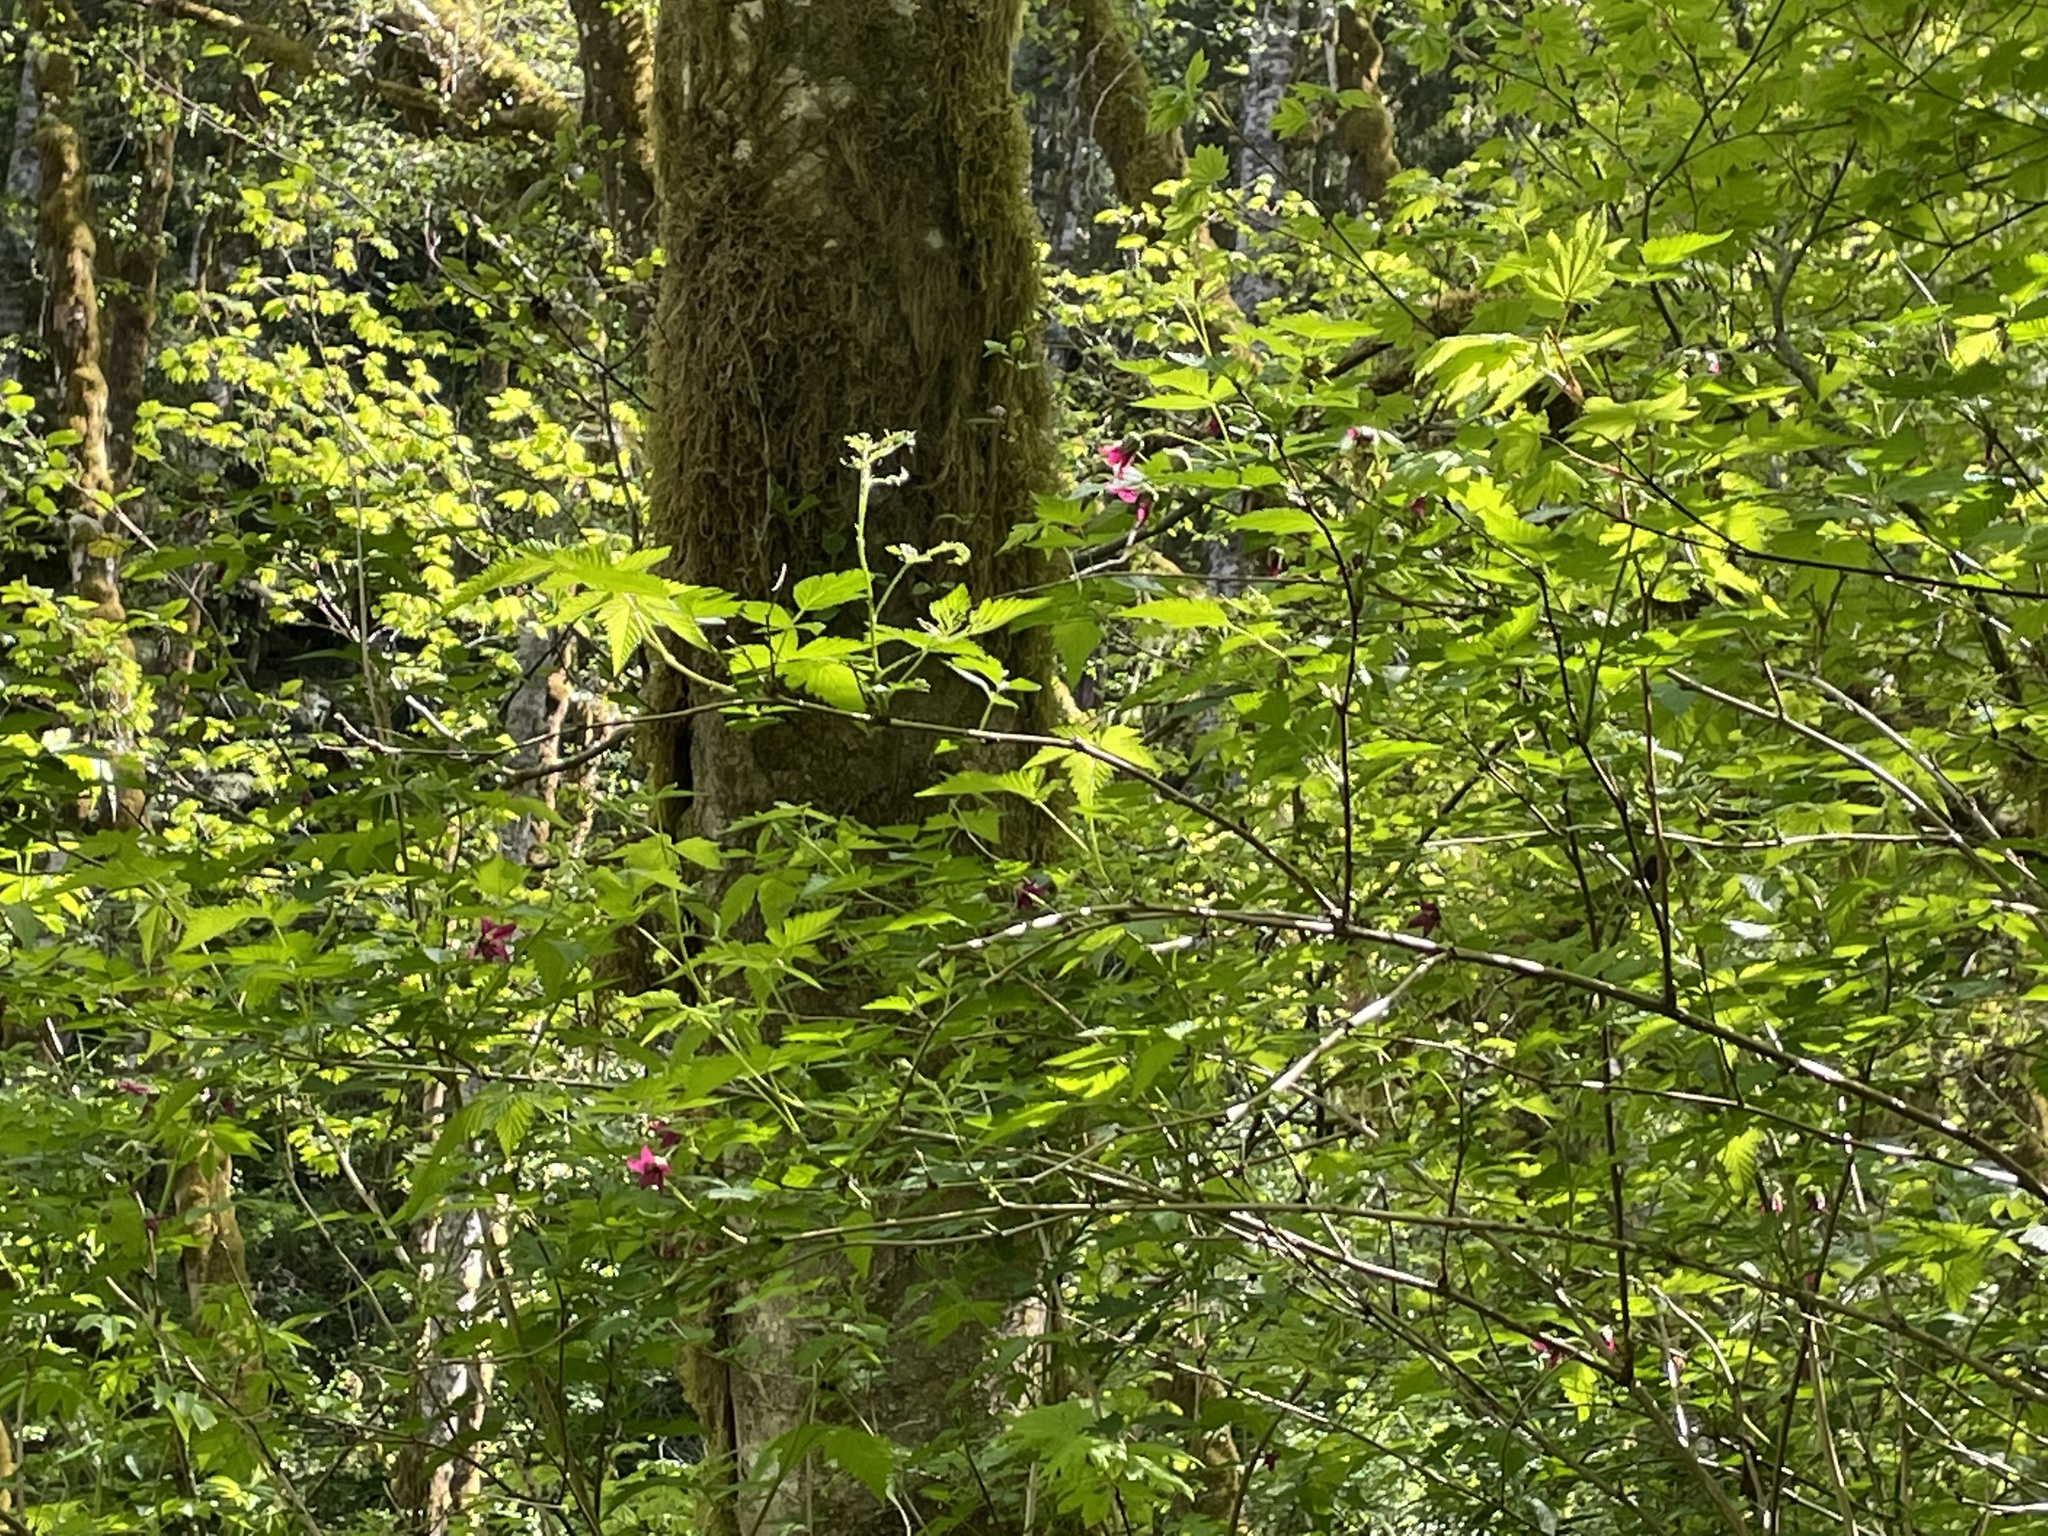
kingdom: Plantae
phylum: Tracheophyta
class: Magnoliopsida
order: Rosales
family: Rosaceae
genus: Rubus
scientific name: Rubus spectabilis
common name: Salmonberry
